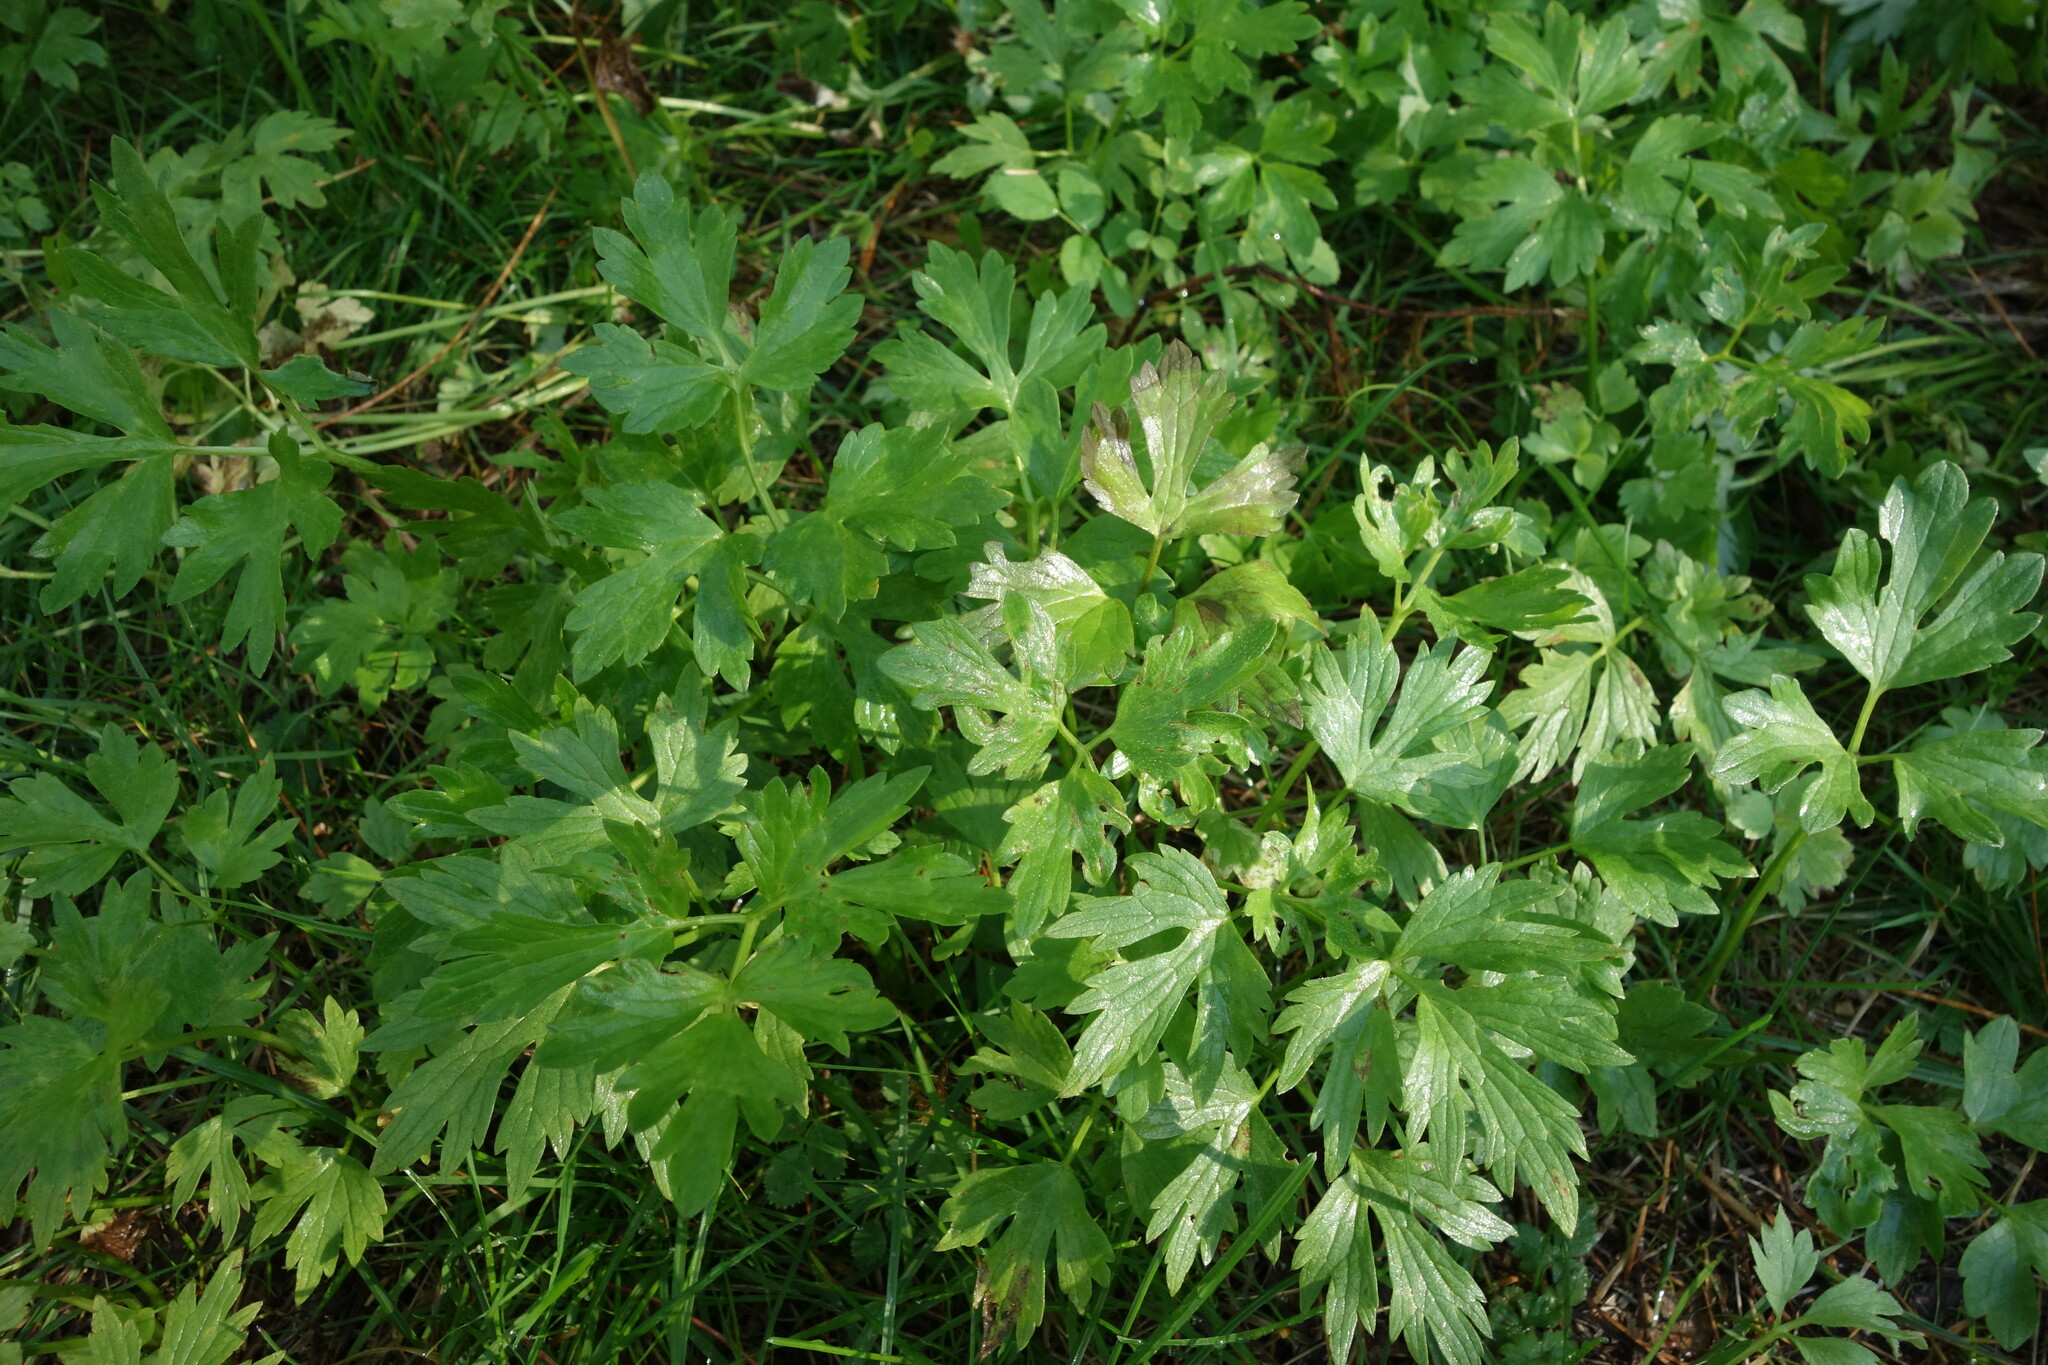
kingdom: Plantae
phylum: Tracheophyta
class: Magnoliopsida
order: Ranunculales
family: Ranunculaceae
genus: Ranunculus
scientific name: Ranunculus repens
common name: Creeping buttercup
